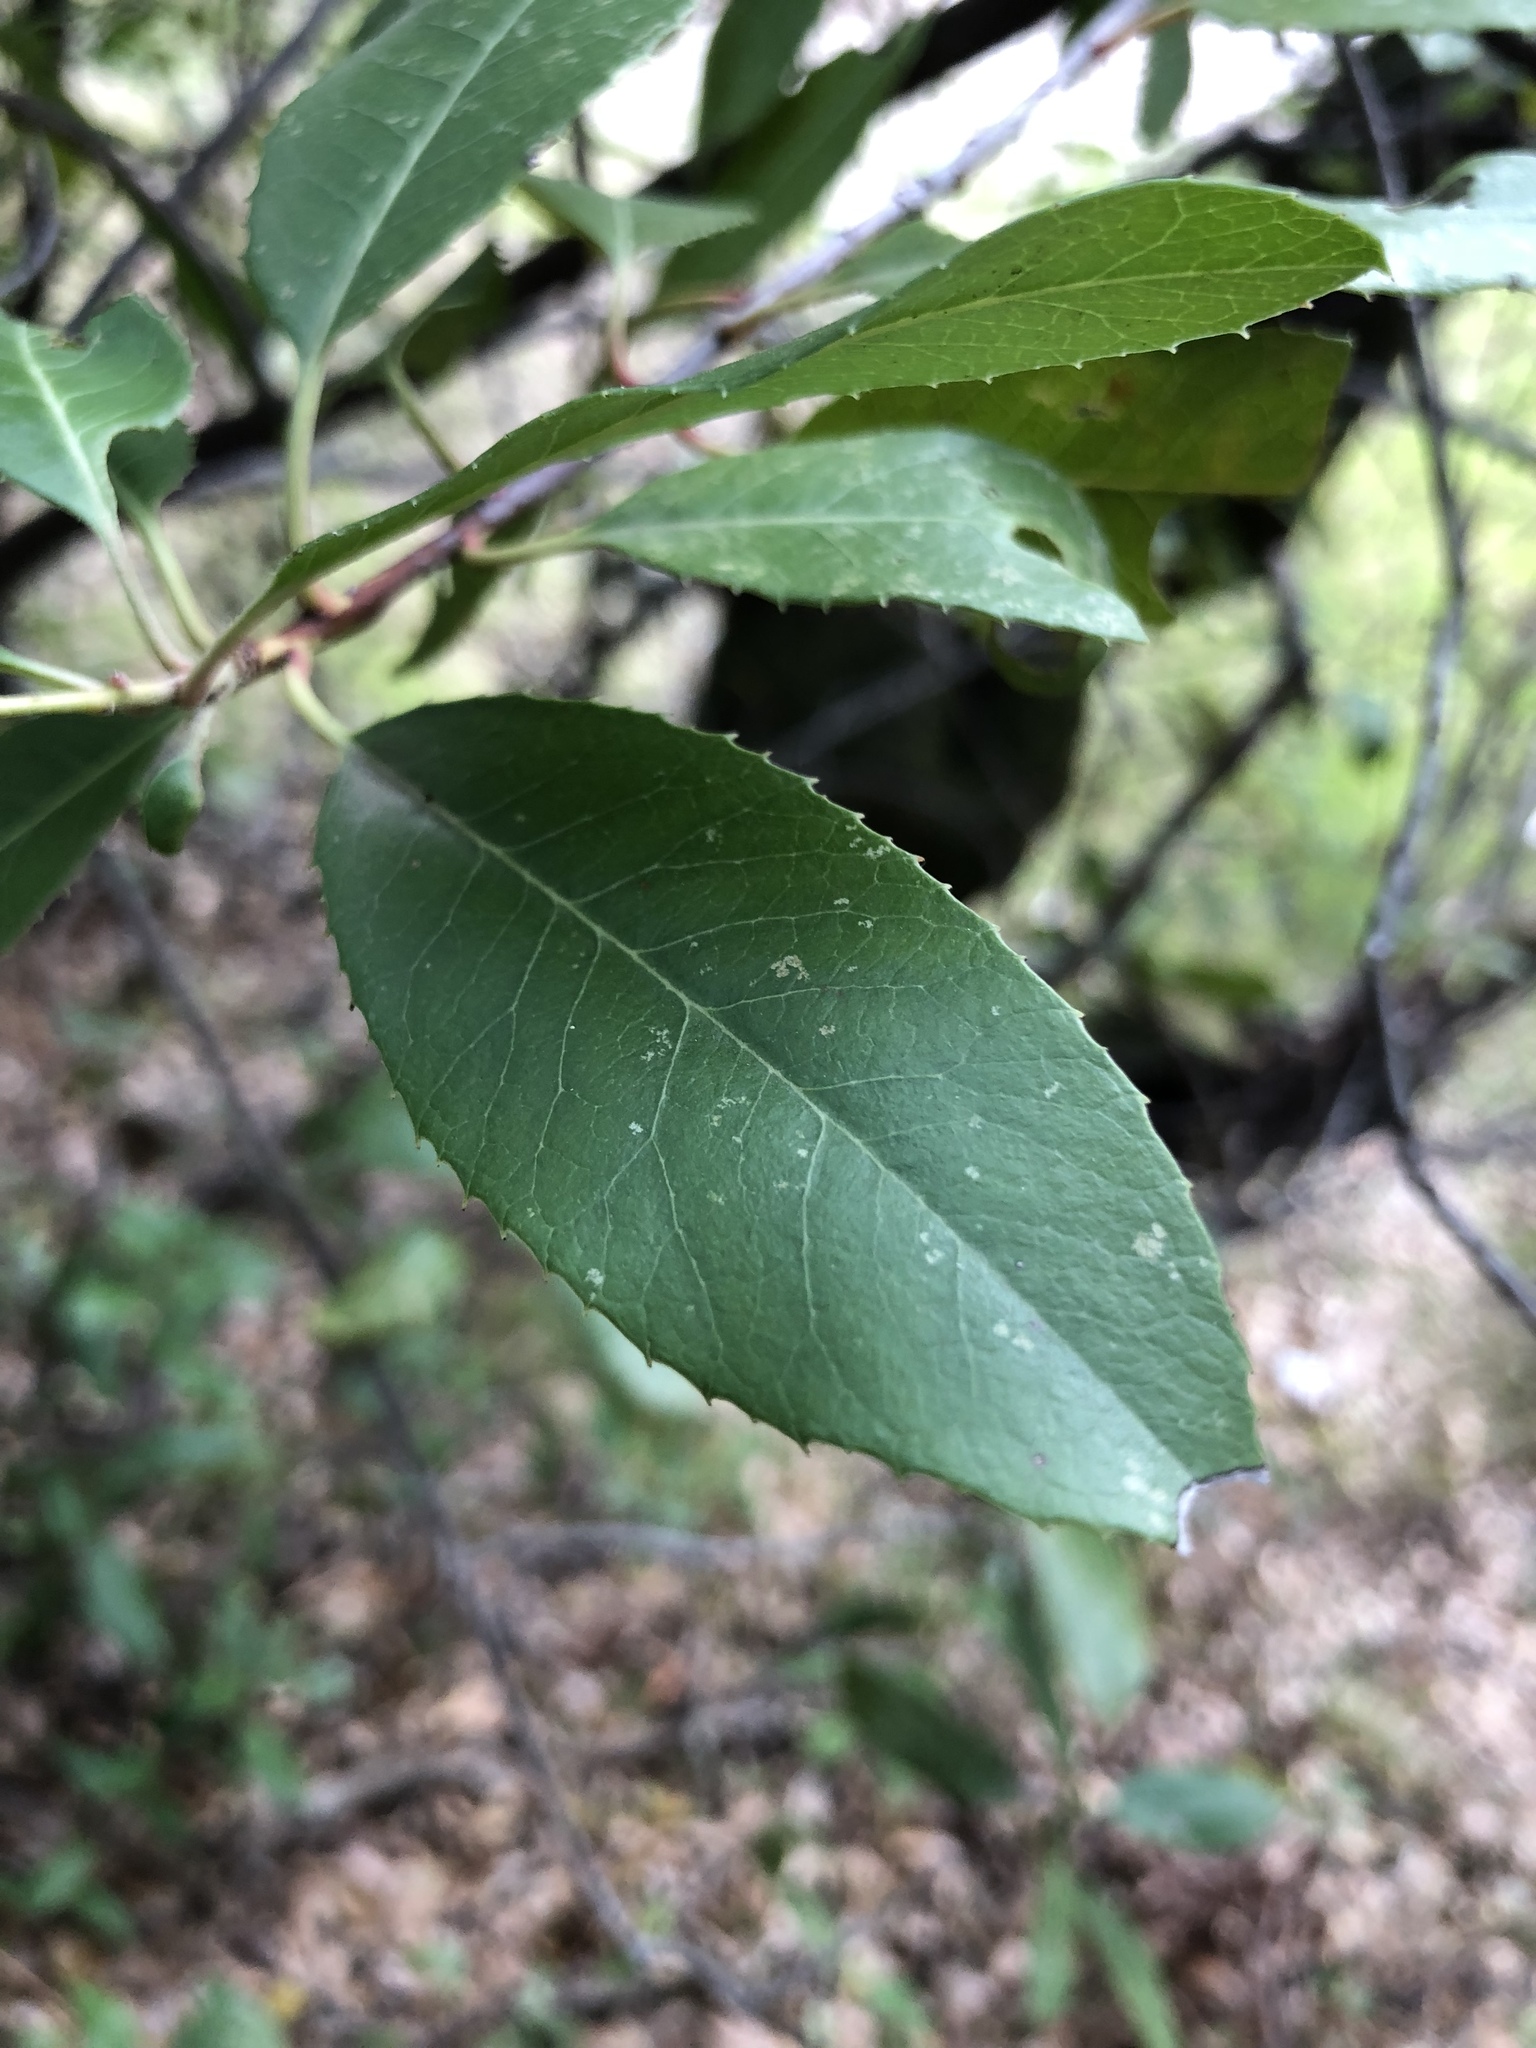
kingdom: Plantae
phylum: Tracheophyta
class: Magnoliopsida
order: Rosales
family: Rosaceae
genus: Heteromeles
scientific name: Heteromeles arbutifolia
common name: California-holly
